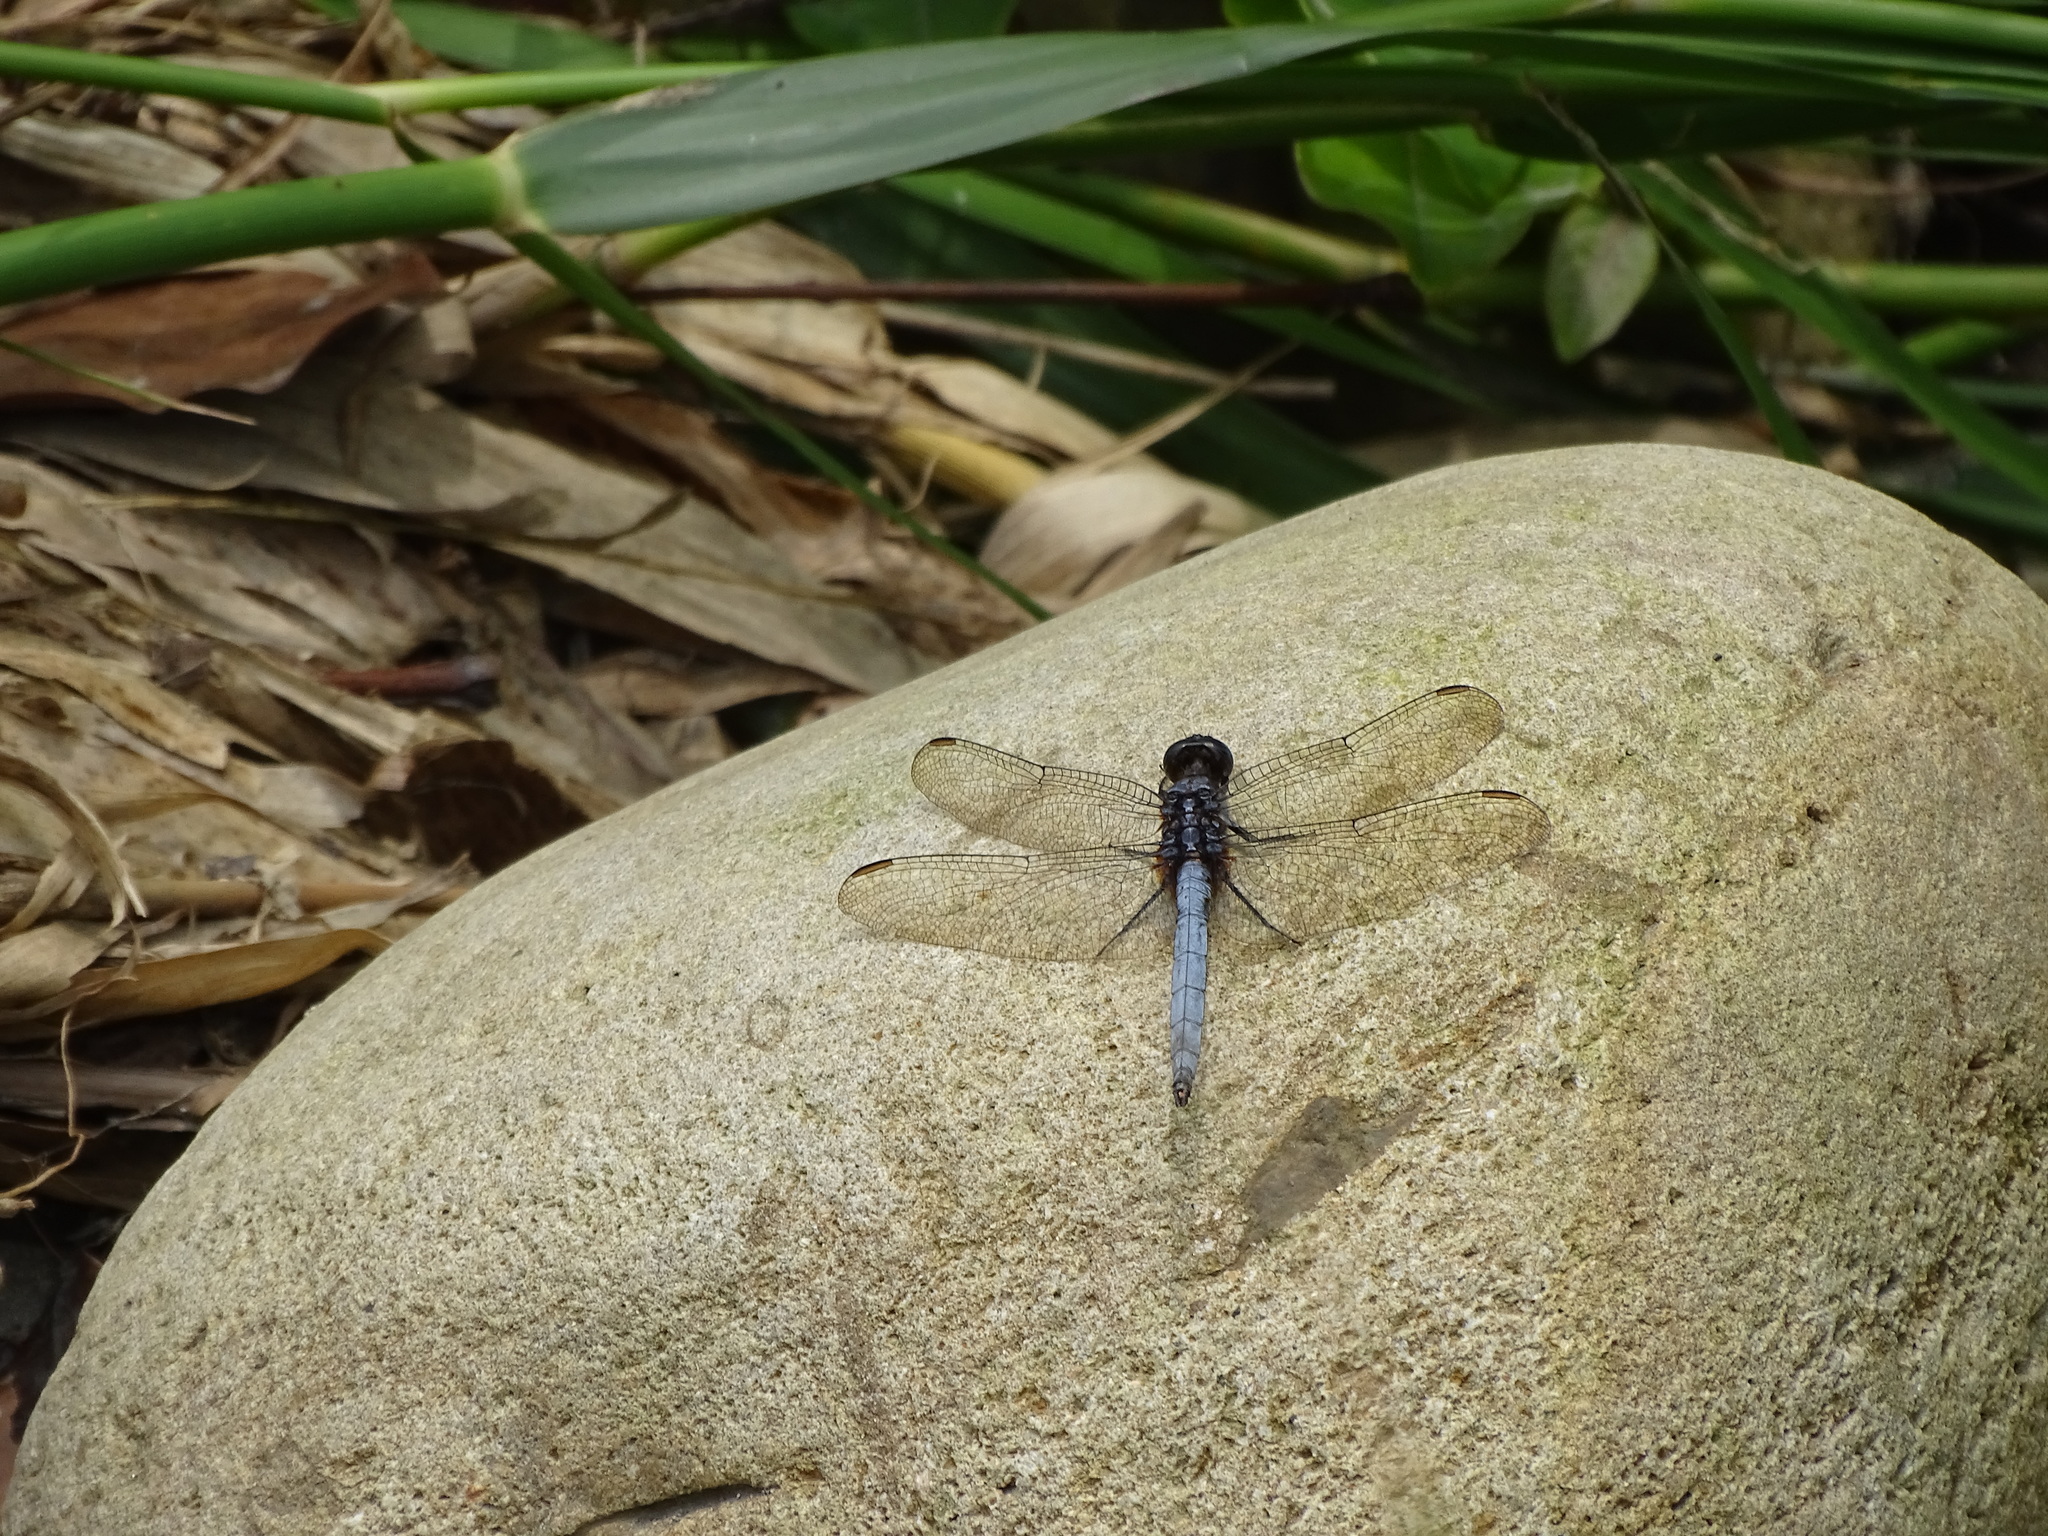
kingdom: Animalia
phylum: Arthropoda
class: Insecta
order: Odonata
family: Libellulidae
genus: Orthetrum
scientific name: Orthetrum glaucum
